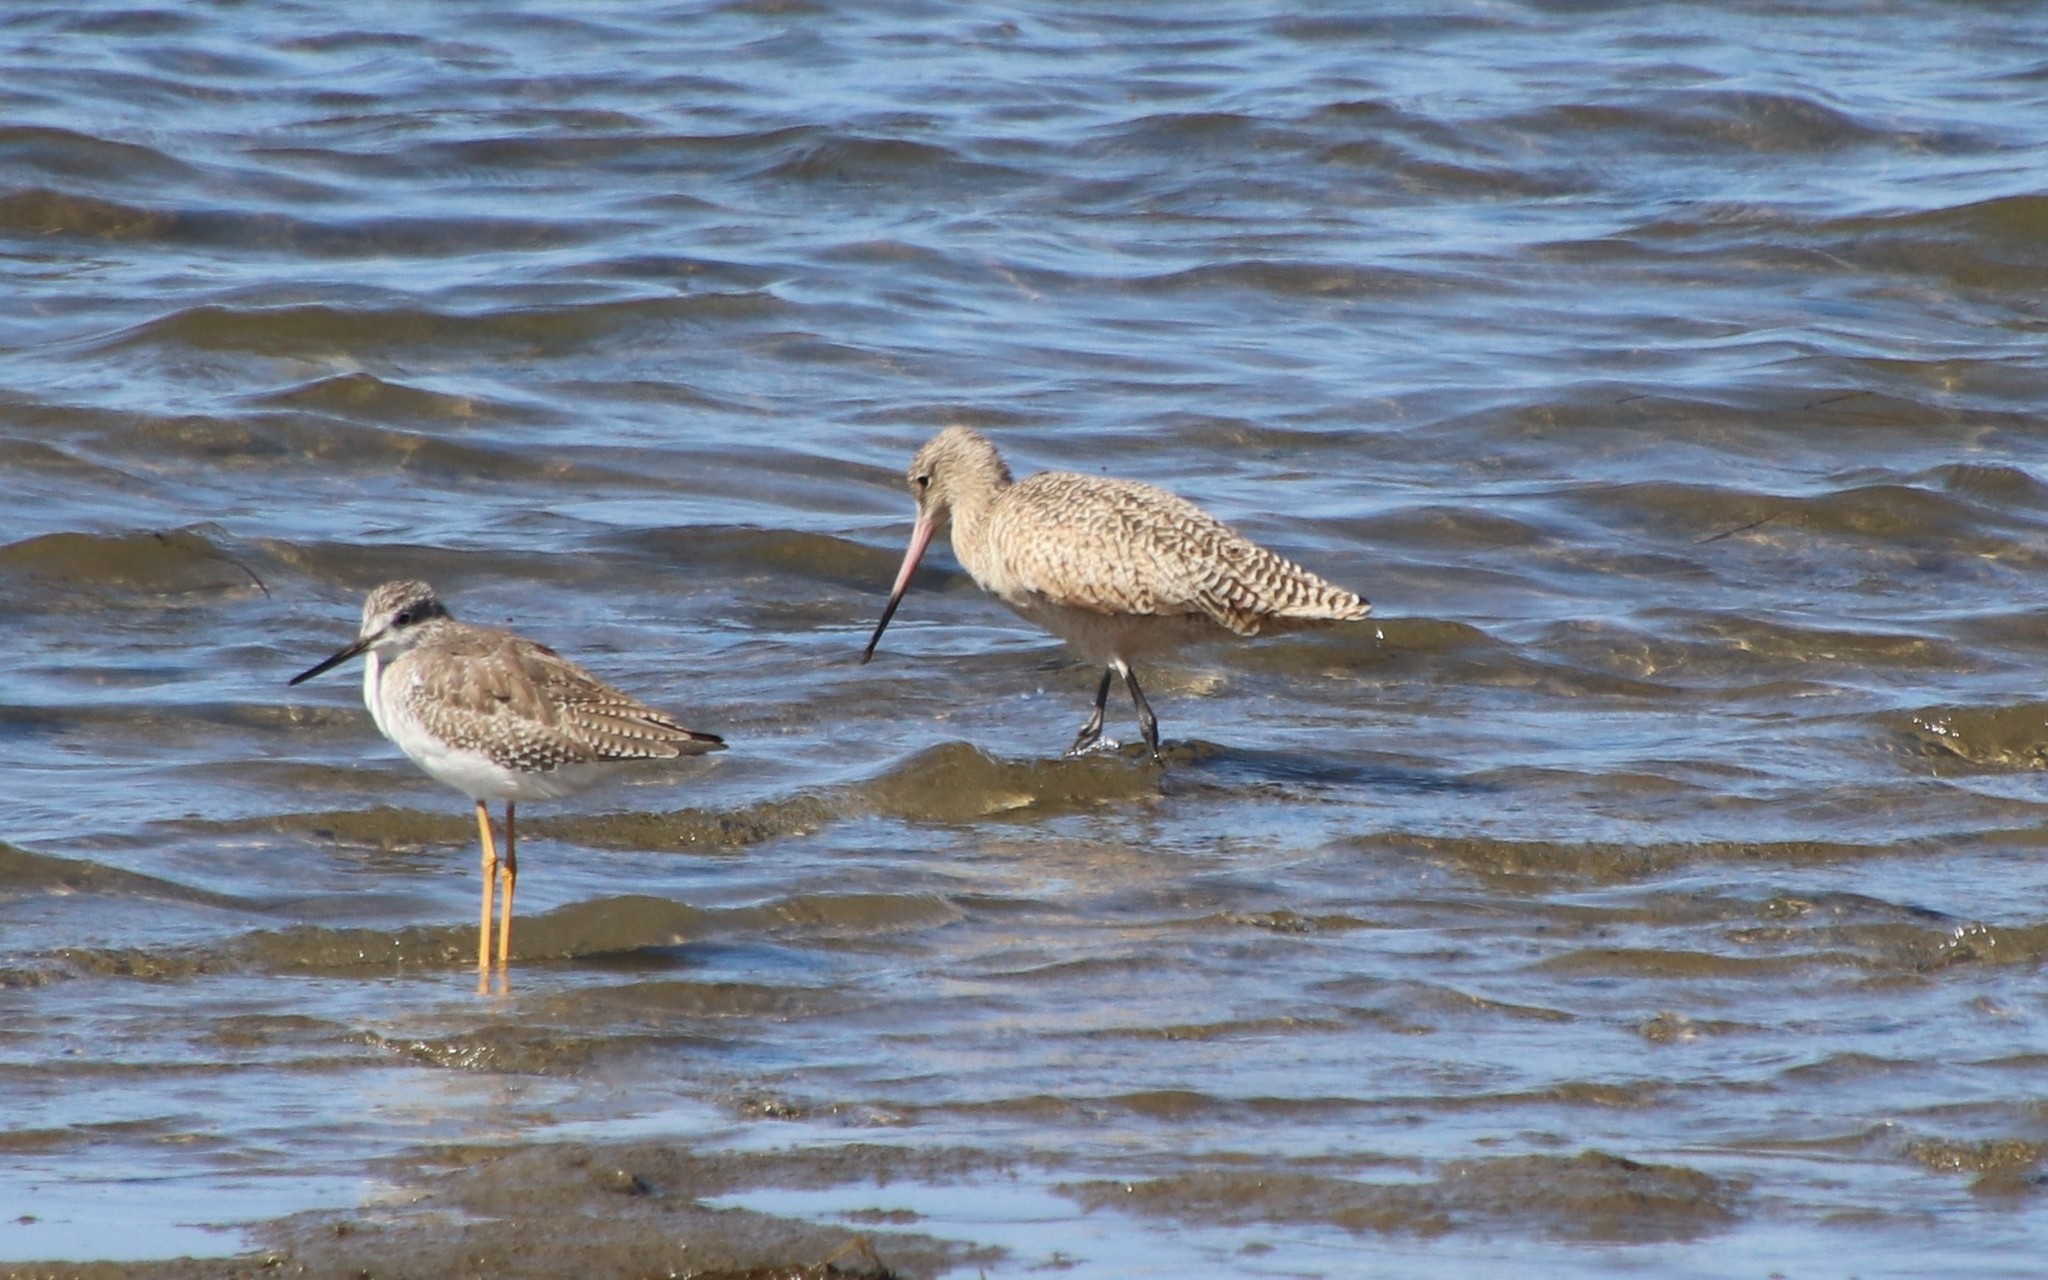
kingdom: Animalia
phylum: Chordata
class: Aves
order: Charadriiformes
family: Scolopacidae
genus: Limosa
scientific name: Limosa fedoa
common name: Marbled godwit
